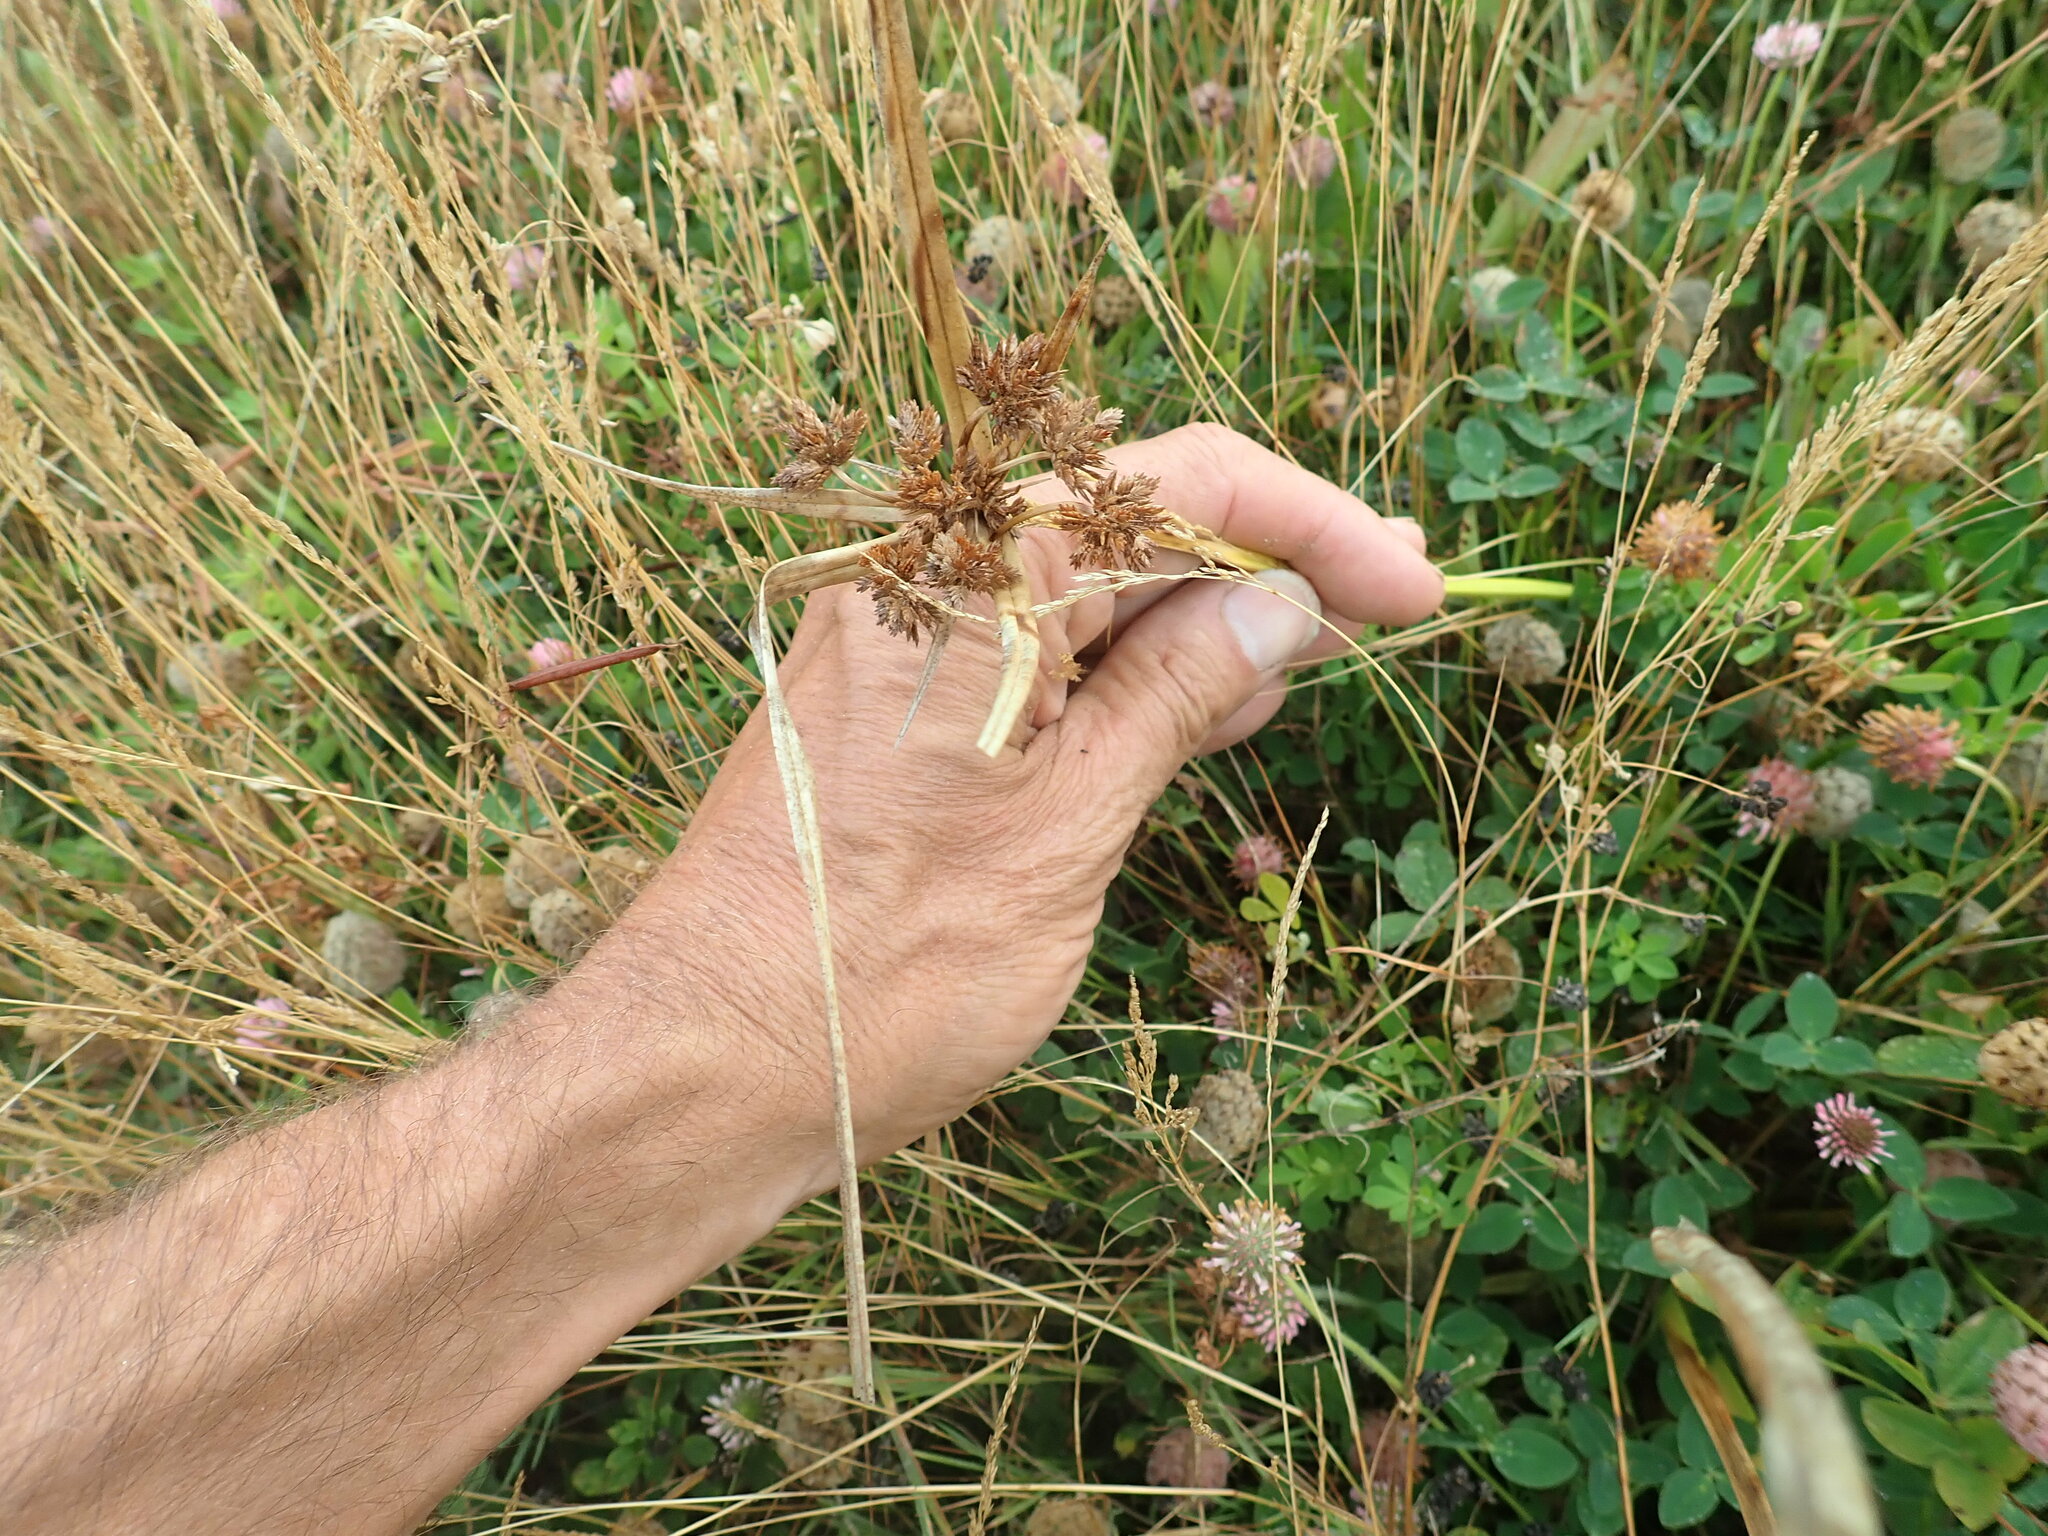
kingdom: Plantae
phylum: Tracheophyta
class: Liliopsida
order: Poales
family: Cyperaceae
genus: Cyperus
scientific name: Cyperus eragrostis
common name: Tall flatsedge
